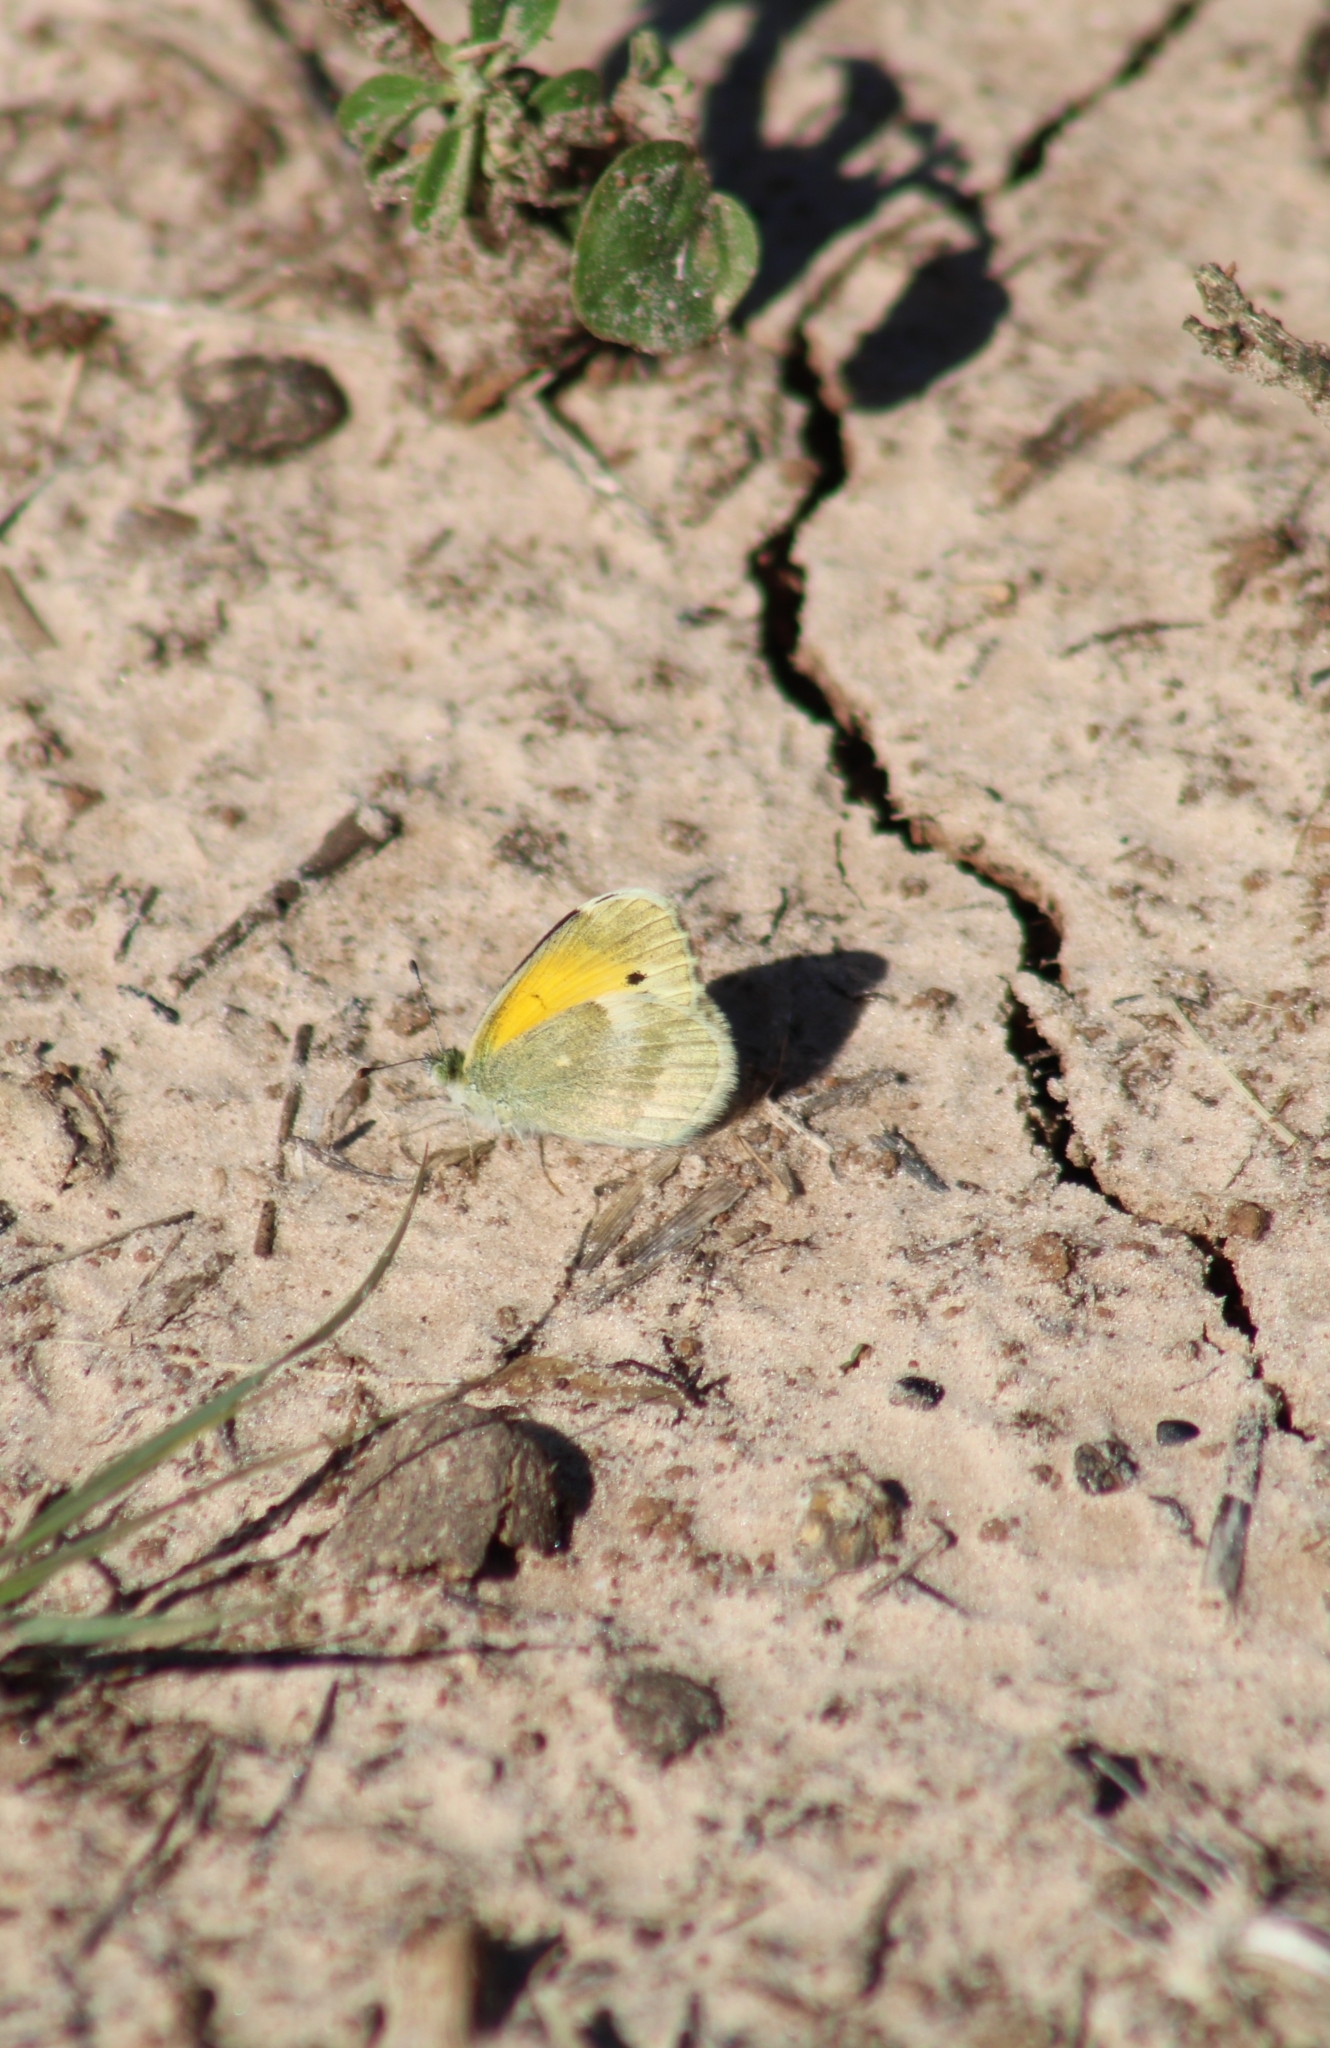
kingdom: Animalia
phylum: Arthropoda
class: Insecta
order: Lepidoptera
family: Pieridae
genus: Nathalis
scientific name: Nathalis iole
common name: Dainty sulphur
